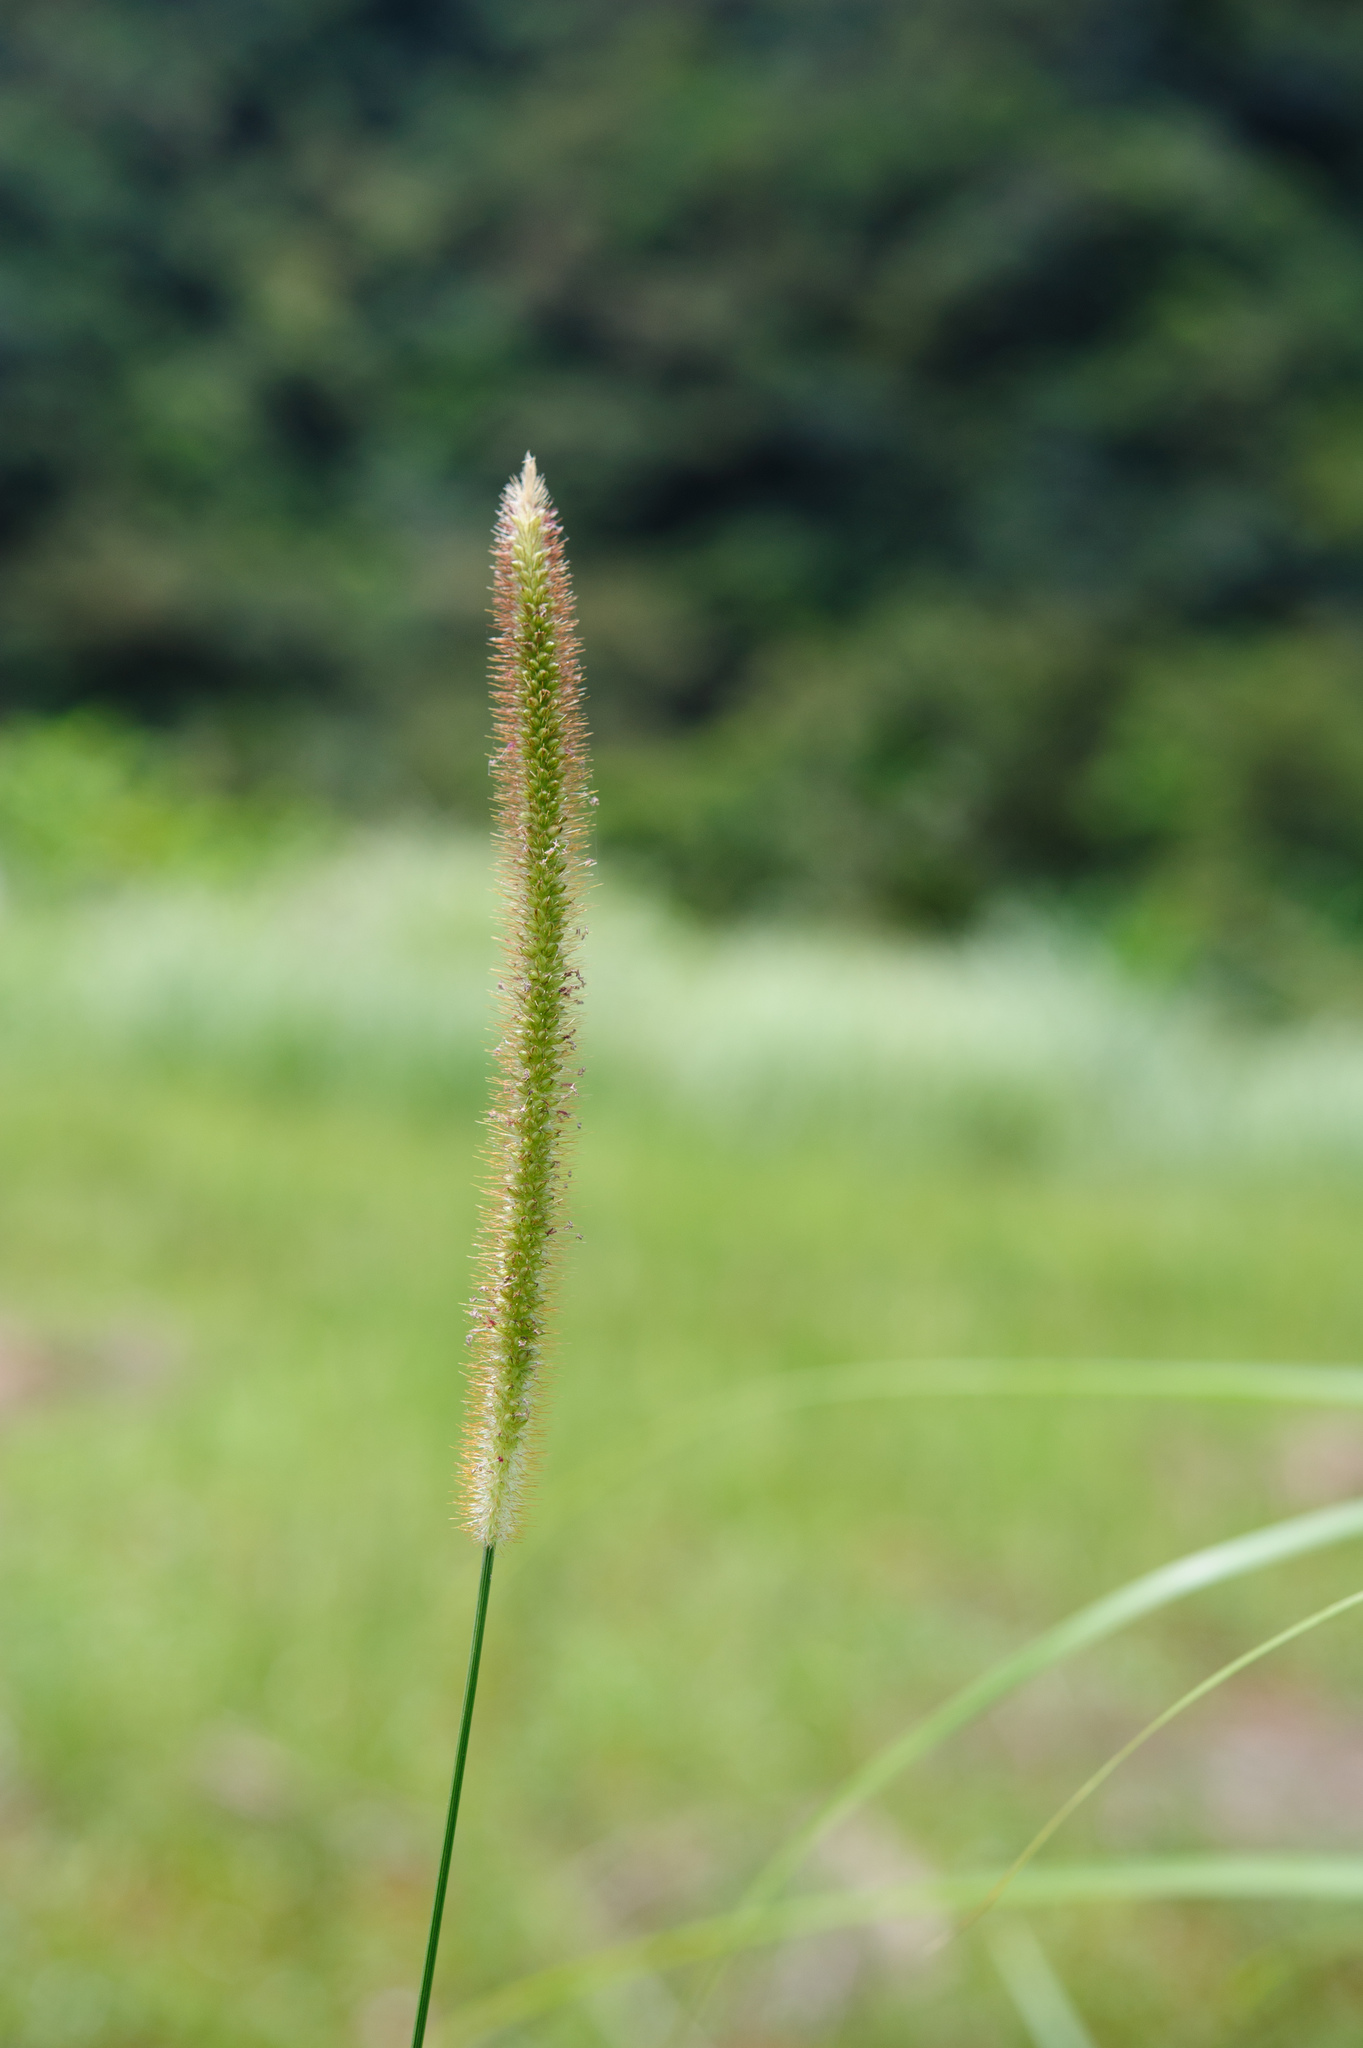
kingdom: Plantae
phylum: Tracheophyta
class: Liliopsida
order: Poales
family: Poaceae
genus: Setaria
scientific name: Setaria sphacelata
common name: African bristlegrass
